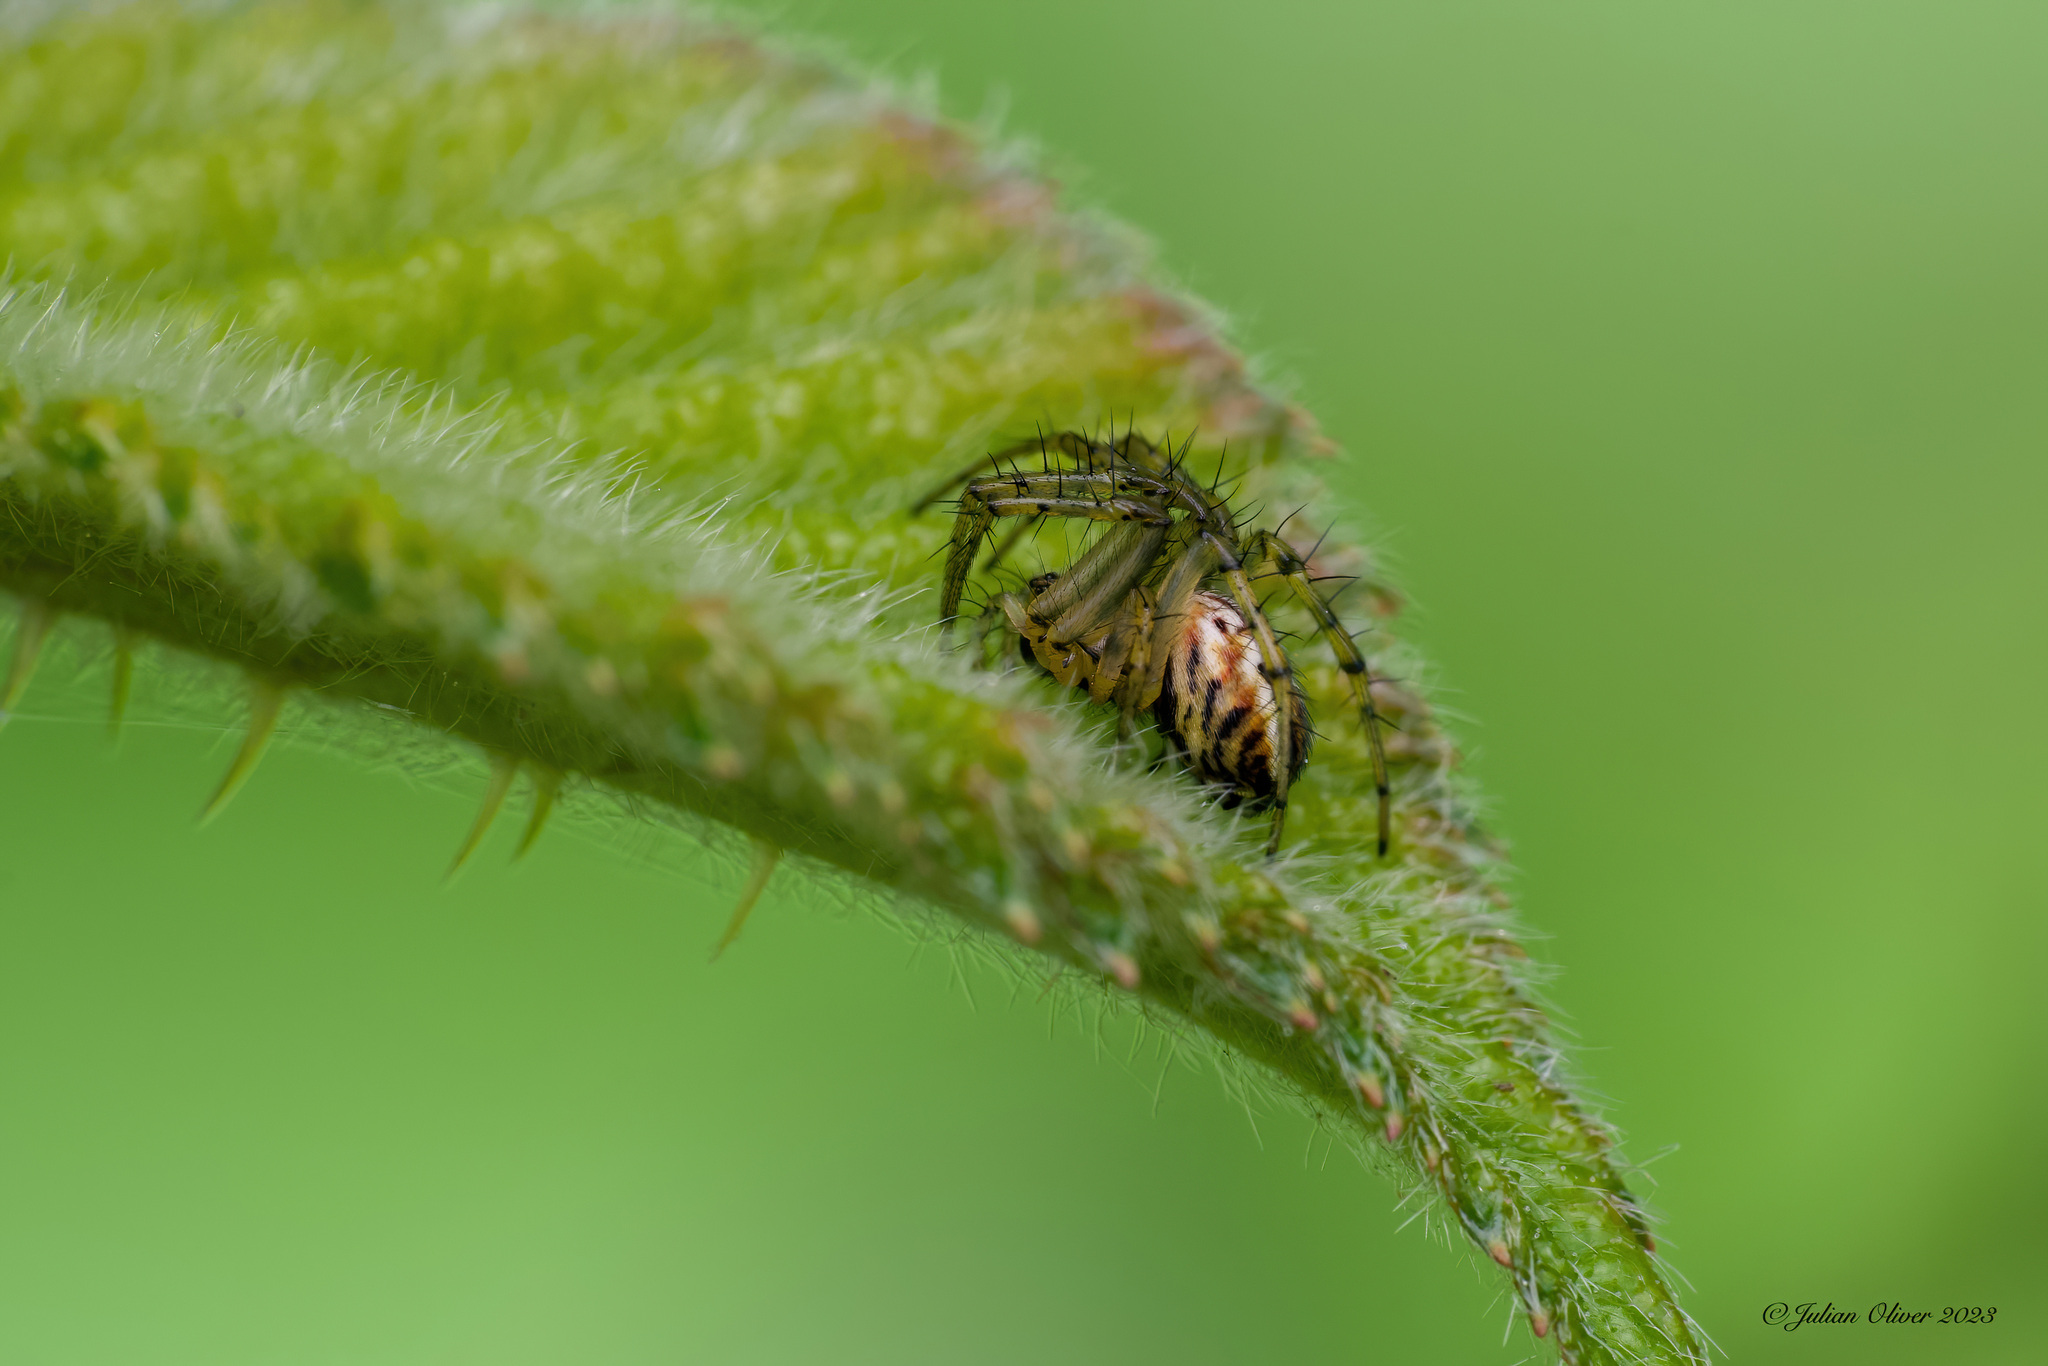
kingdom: Animalia
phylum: Arthropoda
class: Arachnida
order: Araneae
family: Araneidae
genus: Mangora
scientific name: Mangora acalypha
